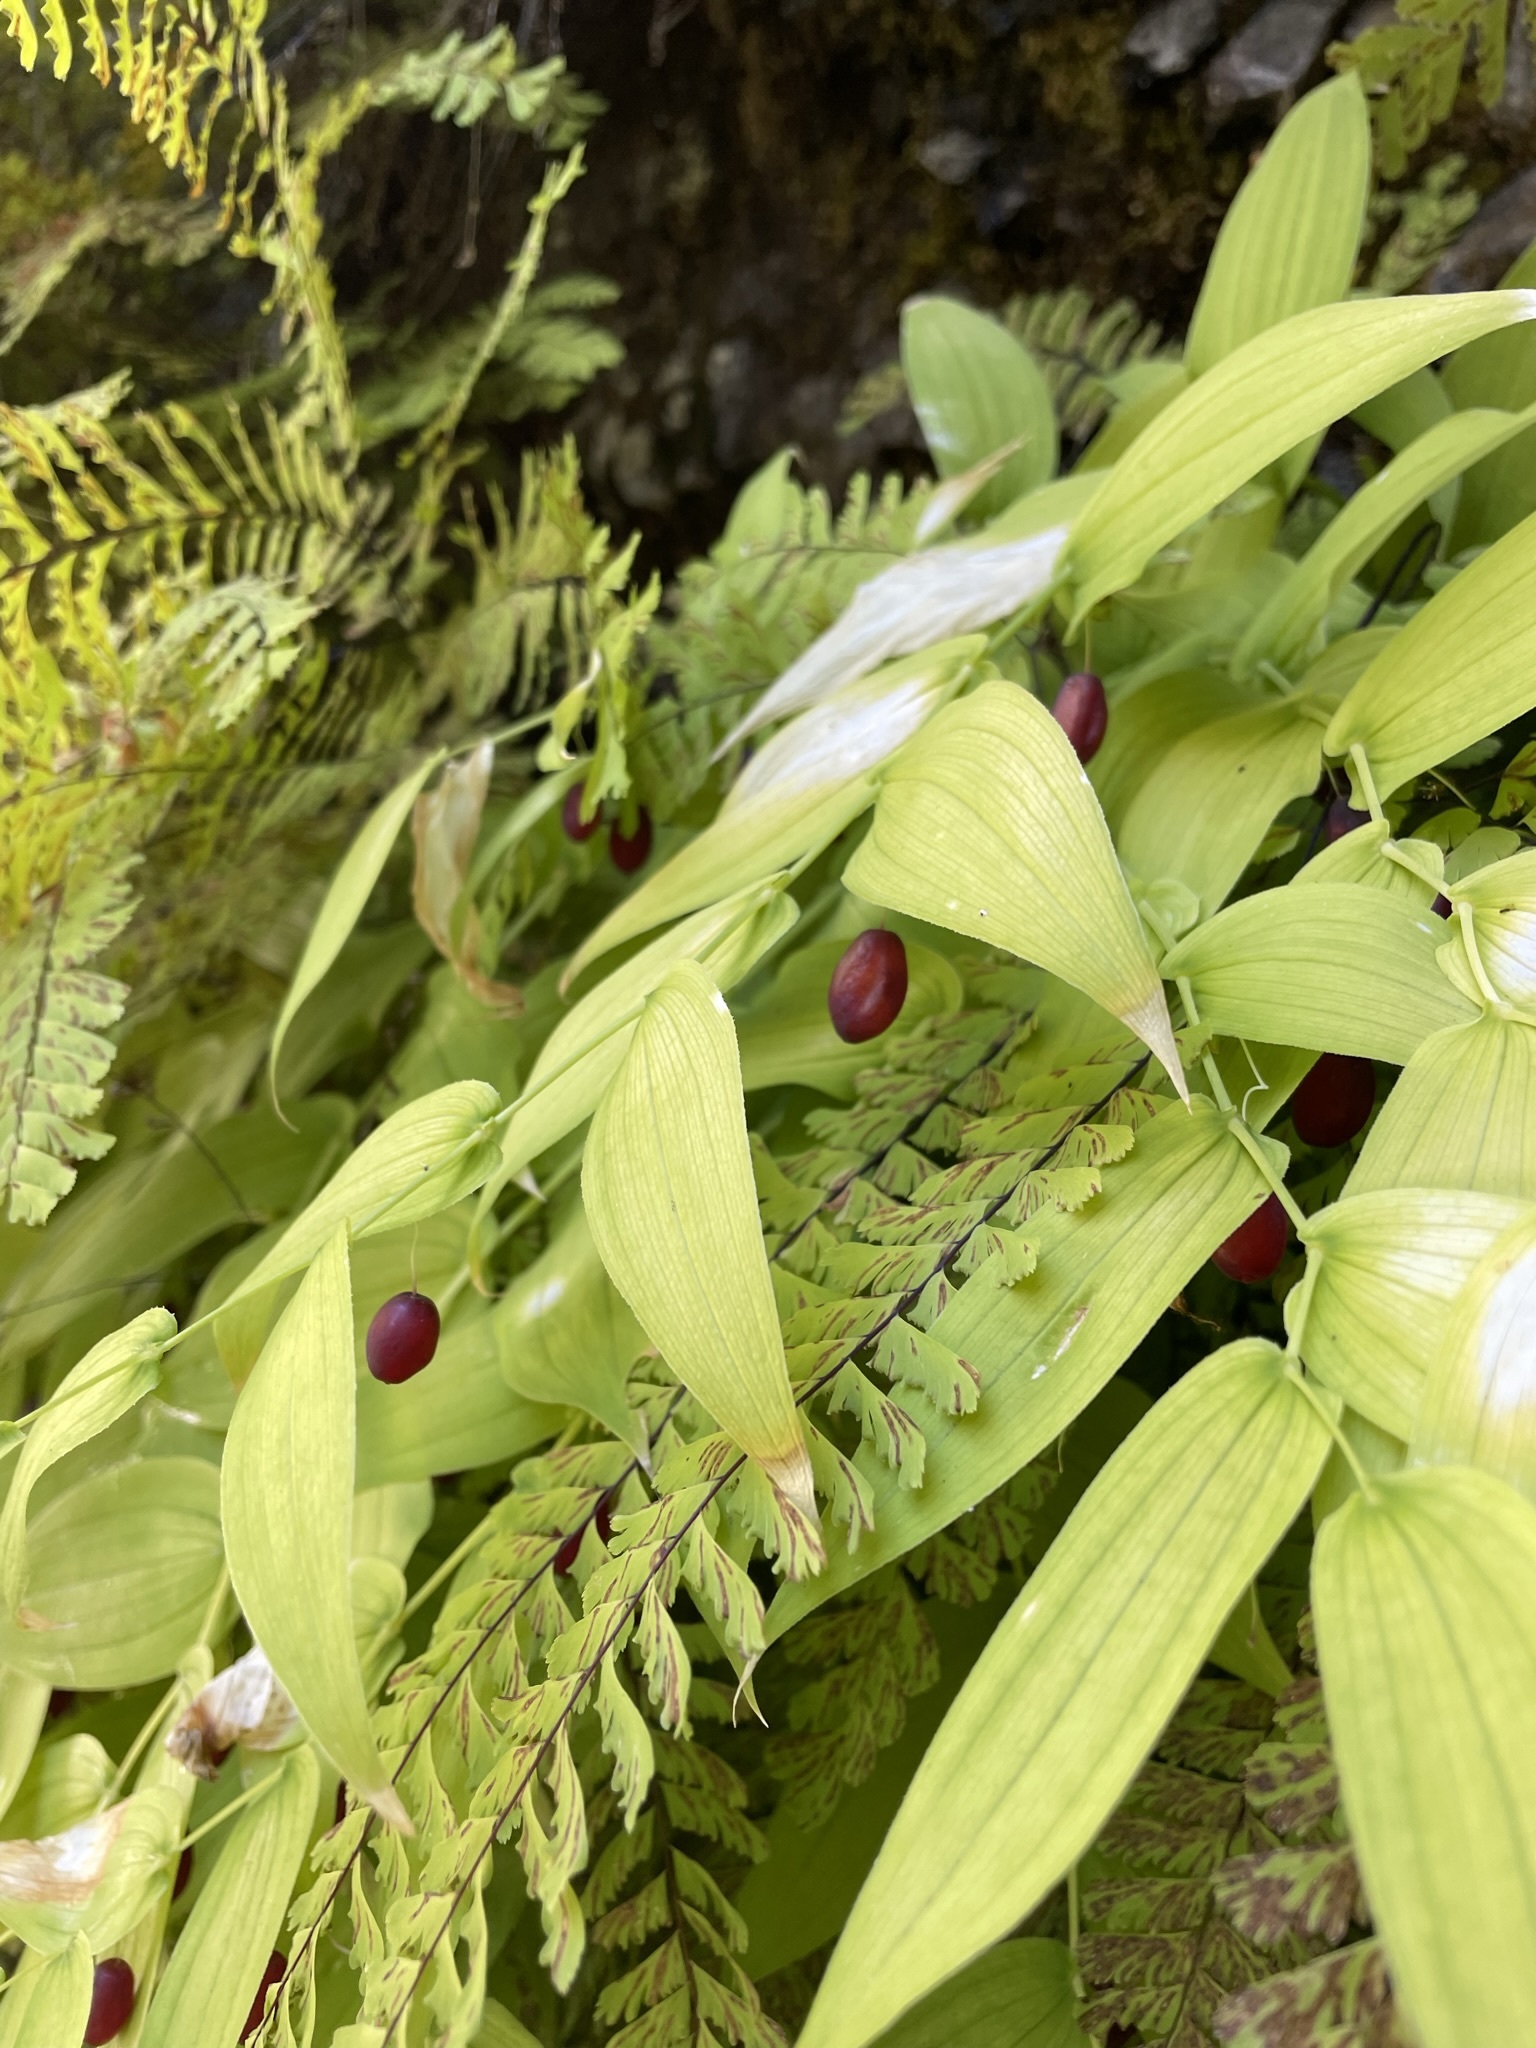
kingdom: Plantae
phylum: Tracheophyta
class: Liliopsida
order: Liliales
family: Liliaceae
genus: Streptopus
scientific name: Streptopus amplexifolius
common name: Clasp twisted stalk
